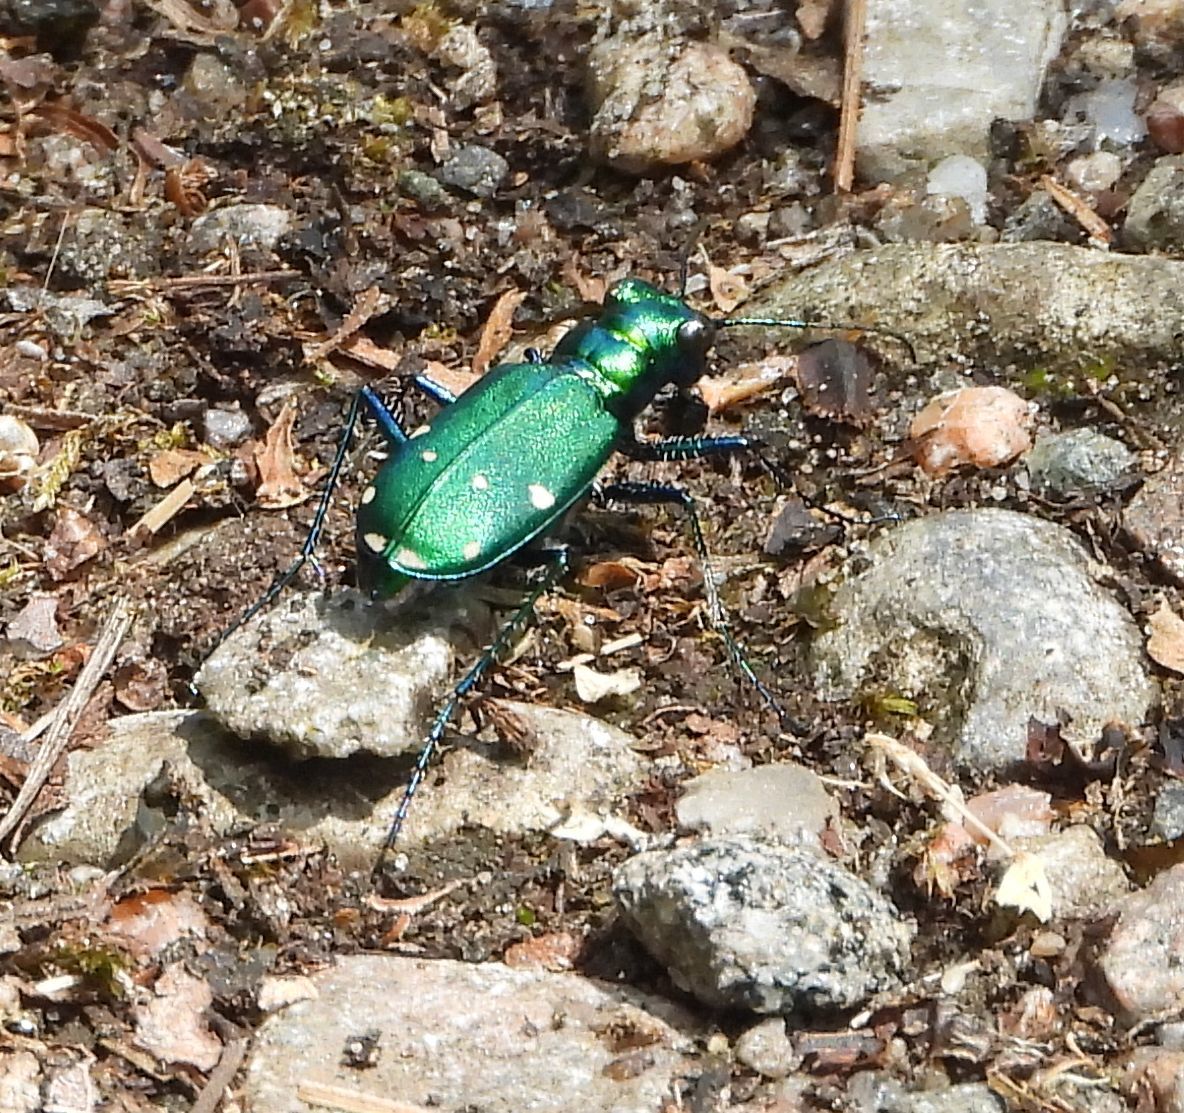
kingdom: Animalia
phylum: Arthropoda
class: Insecta
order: Coleoptera
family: Carabidae
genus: Cicindela
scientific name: Cicindela sexguttata
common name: Six-spotted tiger beetle
